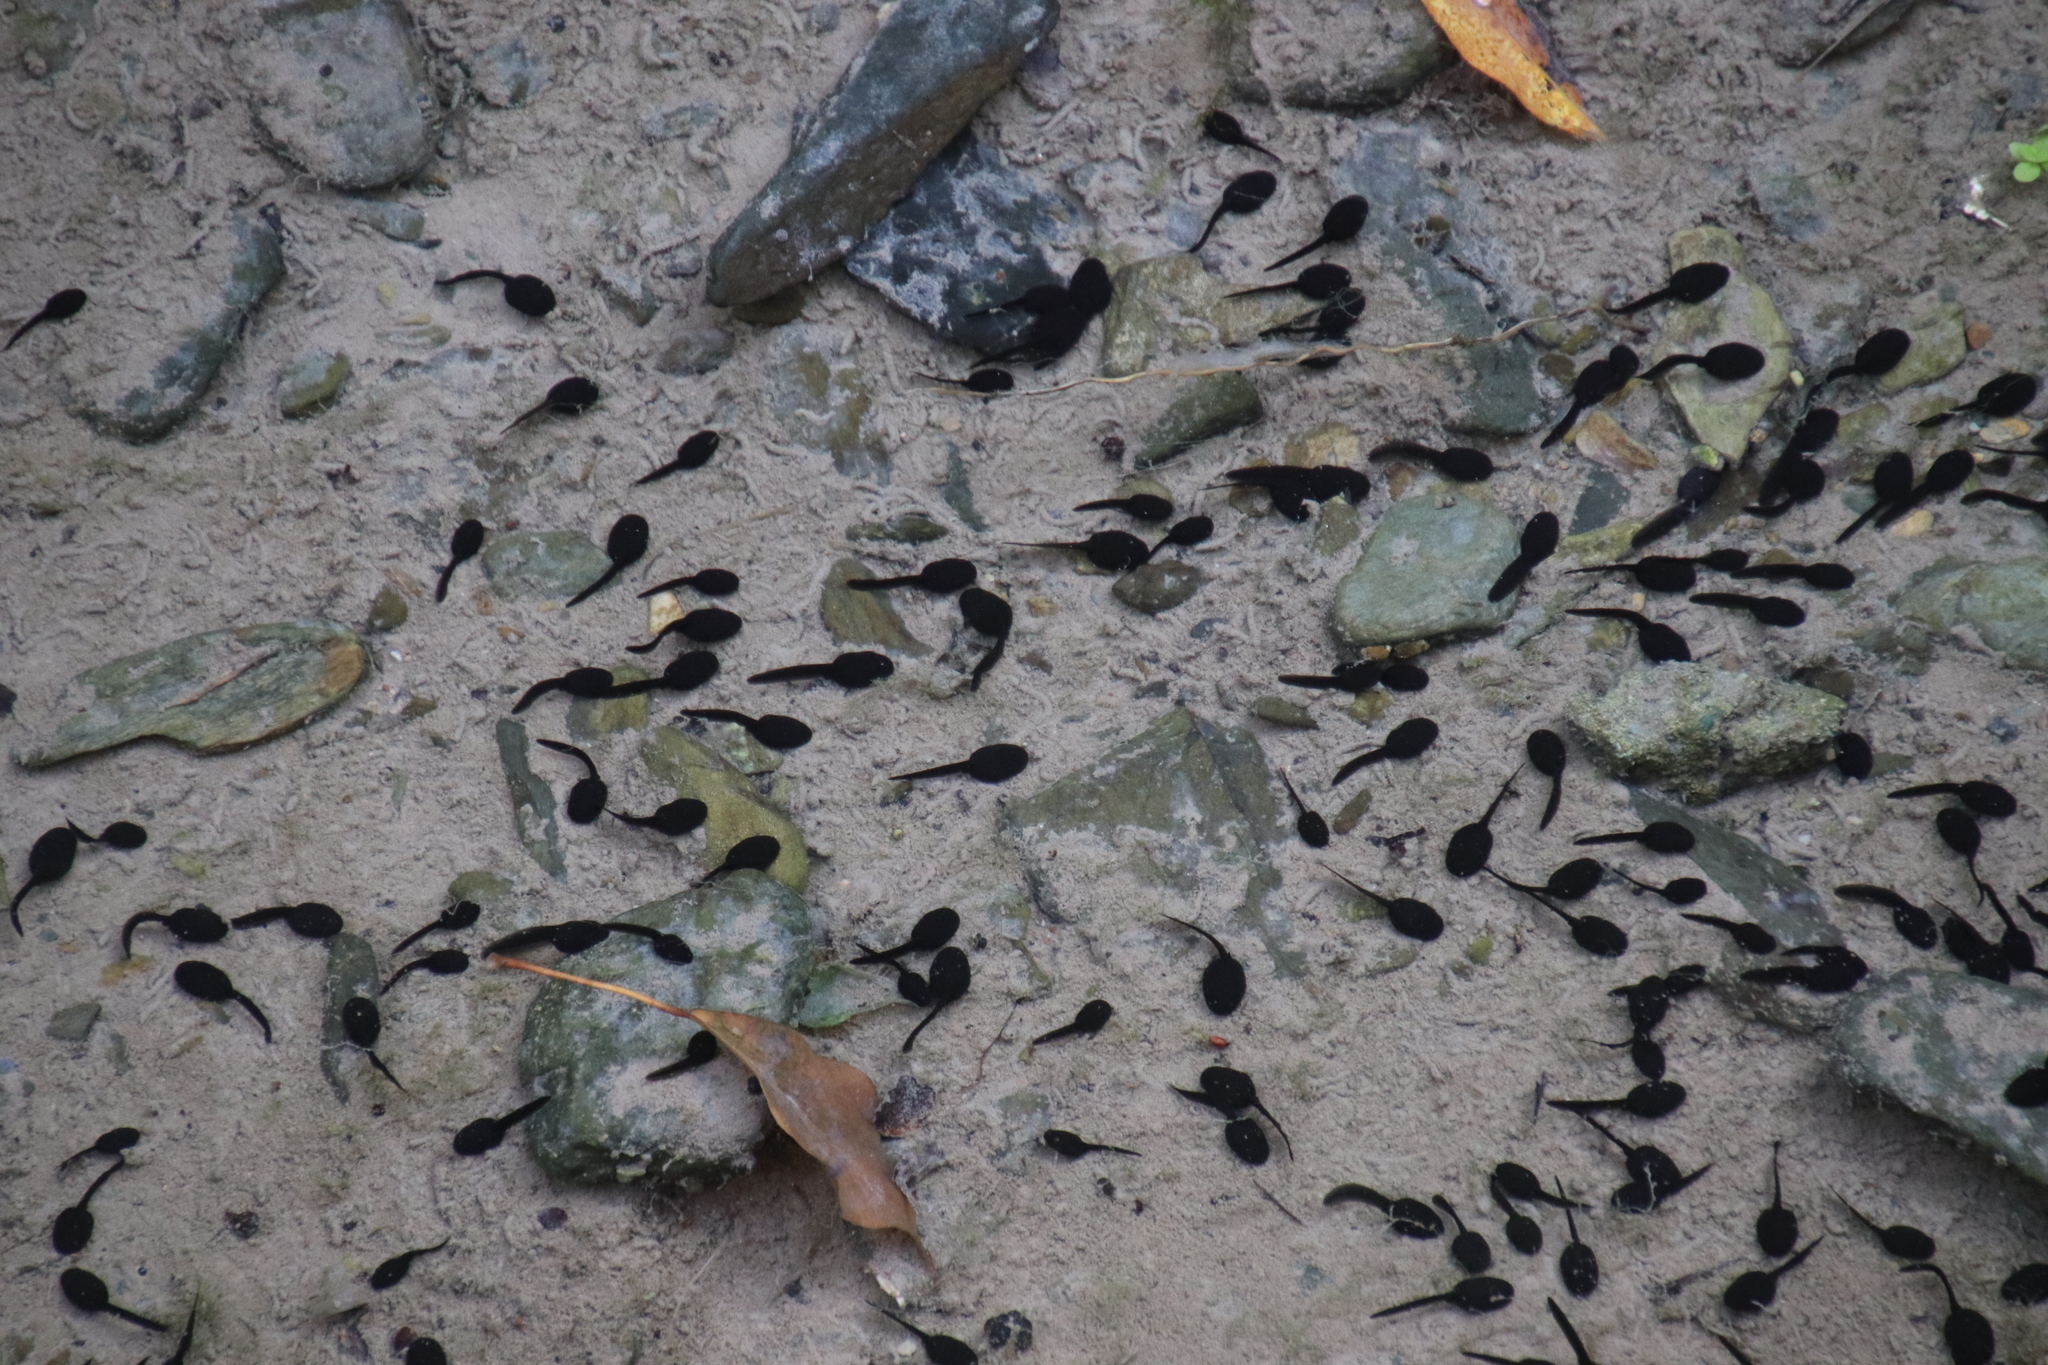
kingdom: Animalia
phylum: Chordata
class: Amphibia
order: Anura
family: Bufonidae
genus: Bufo
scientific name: Bufo bufo
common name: Common toad
